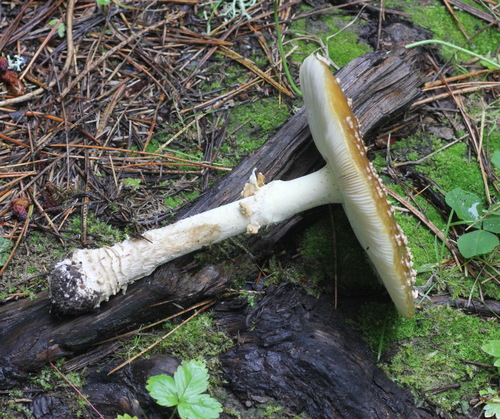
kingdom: Fungi
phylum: Basidiomycota
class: Agaricomycetes
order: Agaricales
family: Amanitaceae
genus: Amanita
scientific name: Amanita regalis
